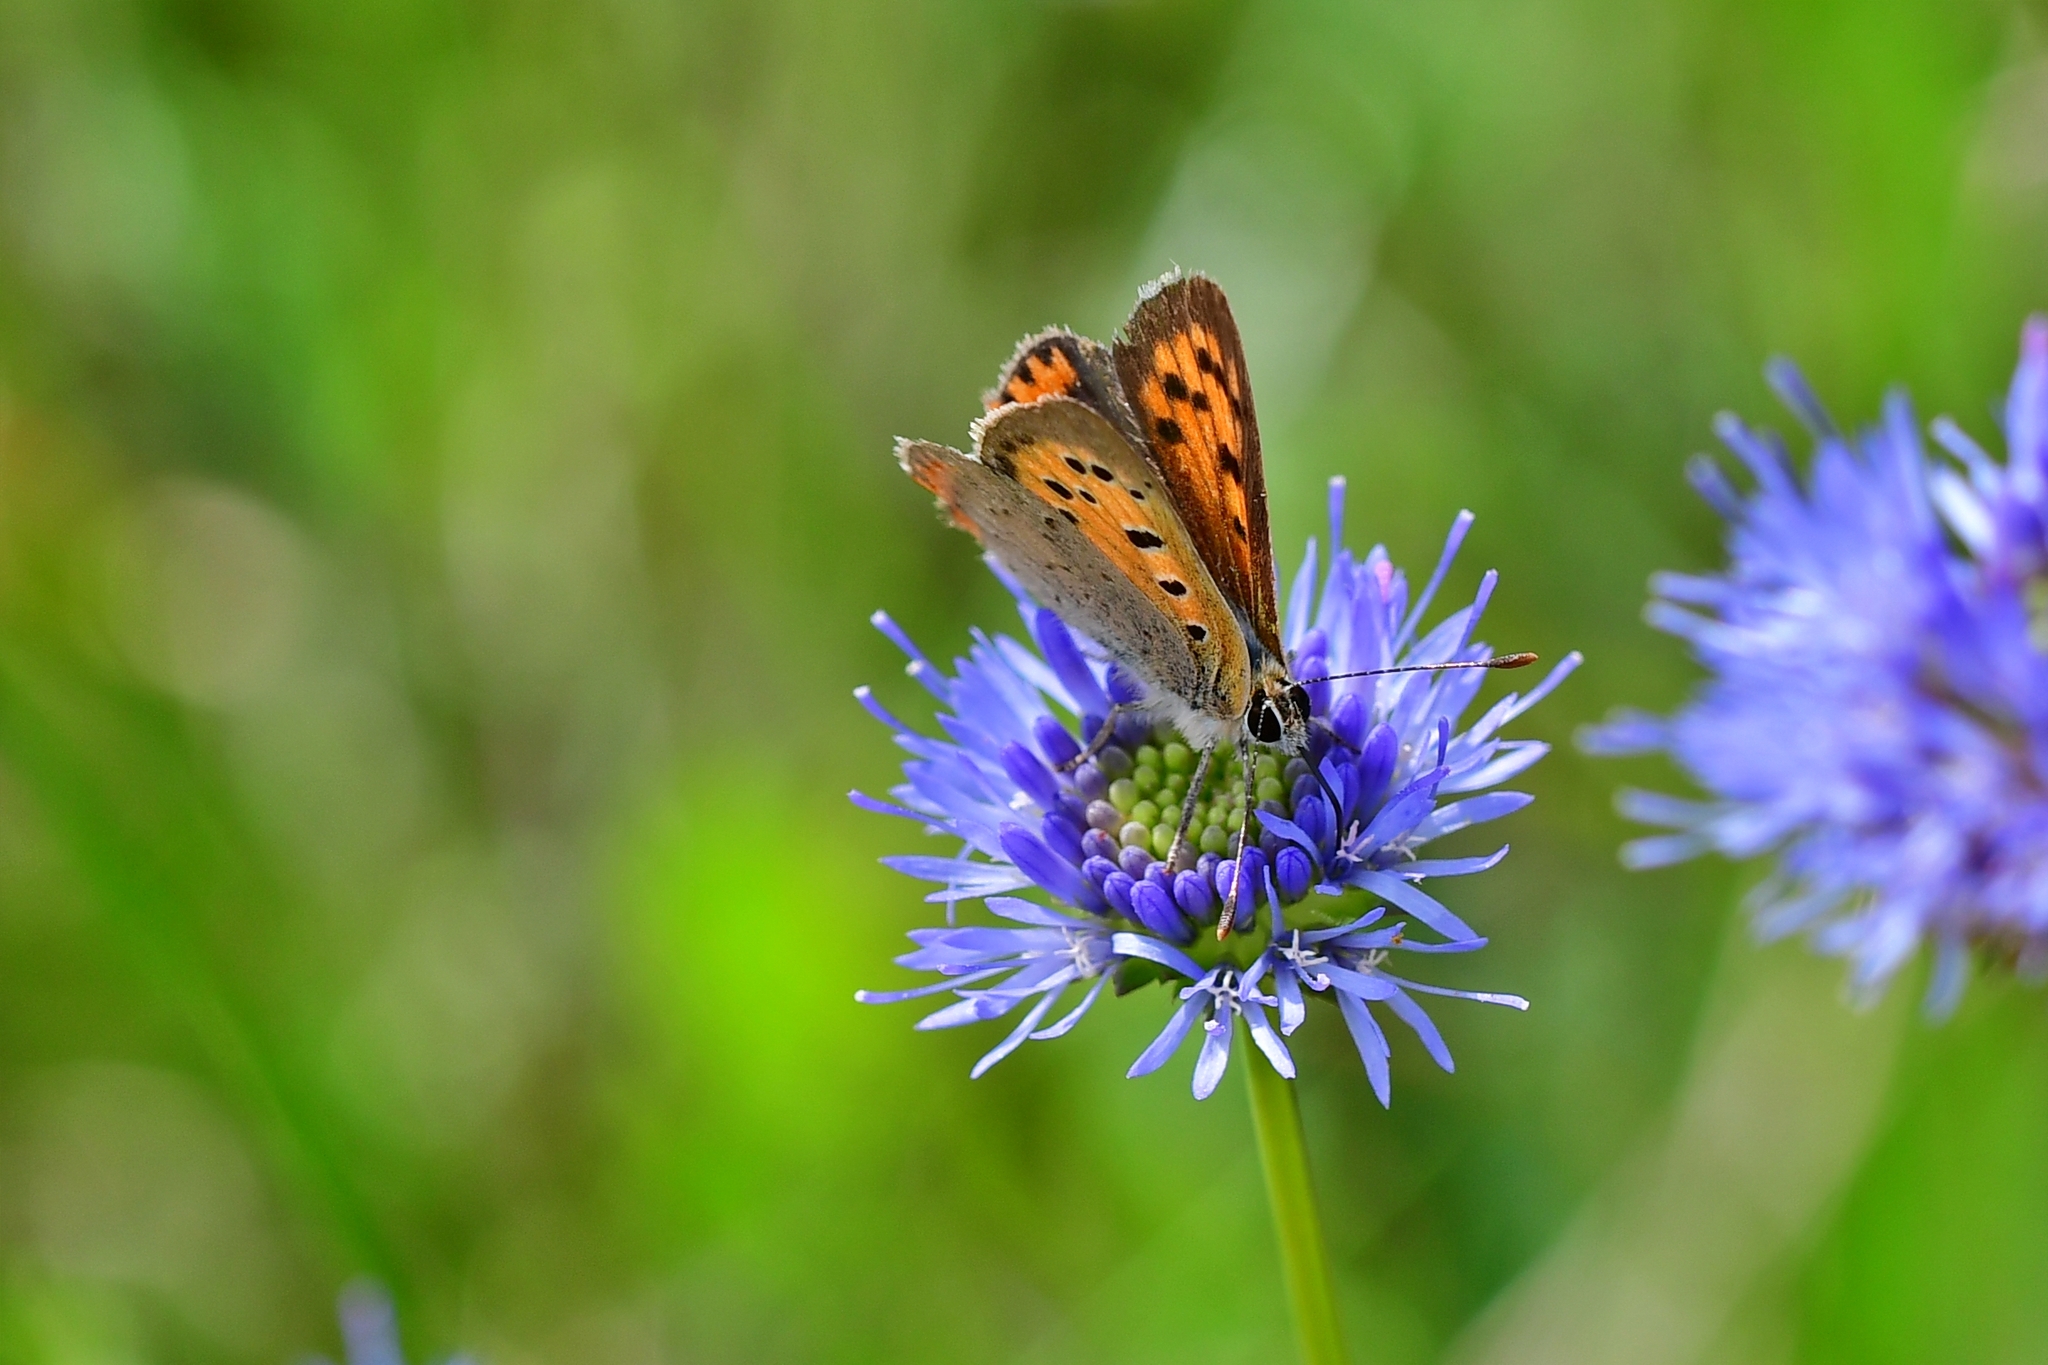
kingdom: Animalia
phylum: Arthropoda
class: Insecta
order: Lepidoptera
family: Lycaenidae
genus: Lycaena
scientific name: Lycaena phlaeas
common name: Small copper
